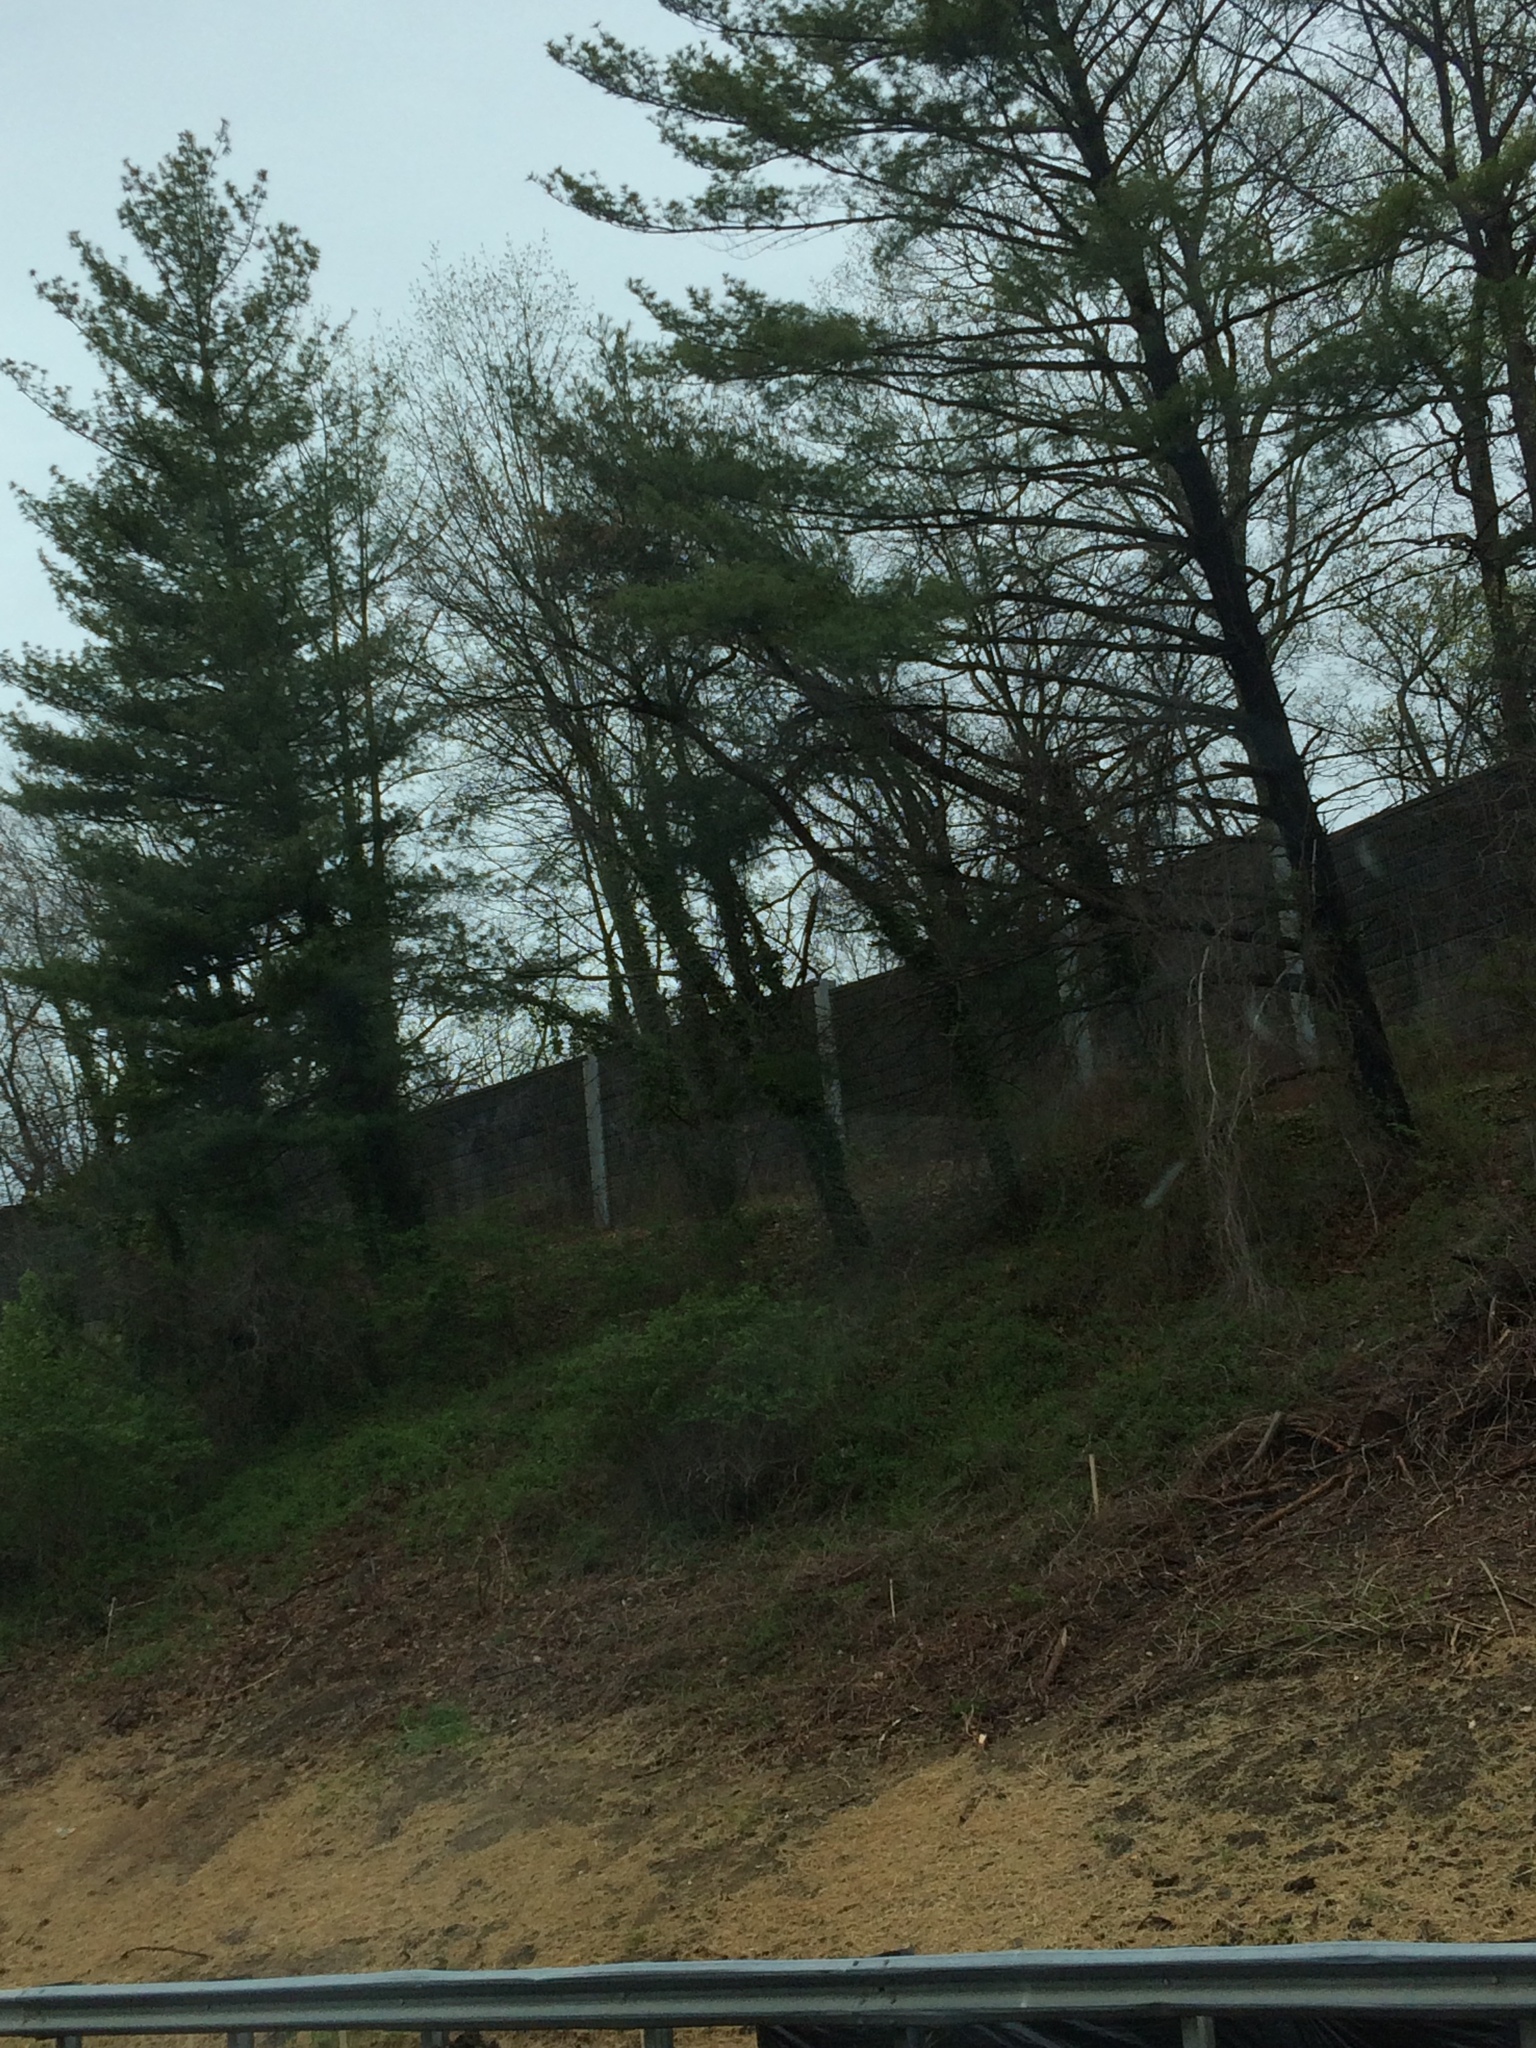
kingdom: Plantae
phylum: Tracheophyta
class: Pinopsida
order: Pinales
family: Pinaceae
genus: Pinus
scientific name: Pinus strobus
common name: Weymouth pine
